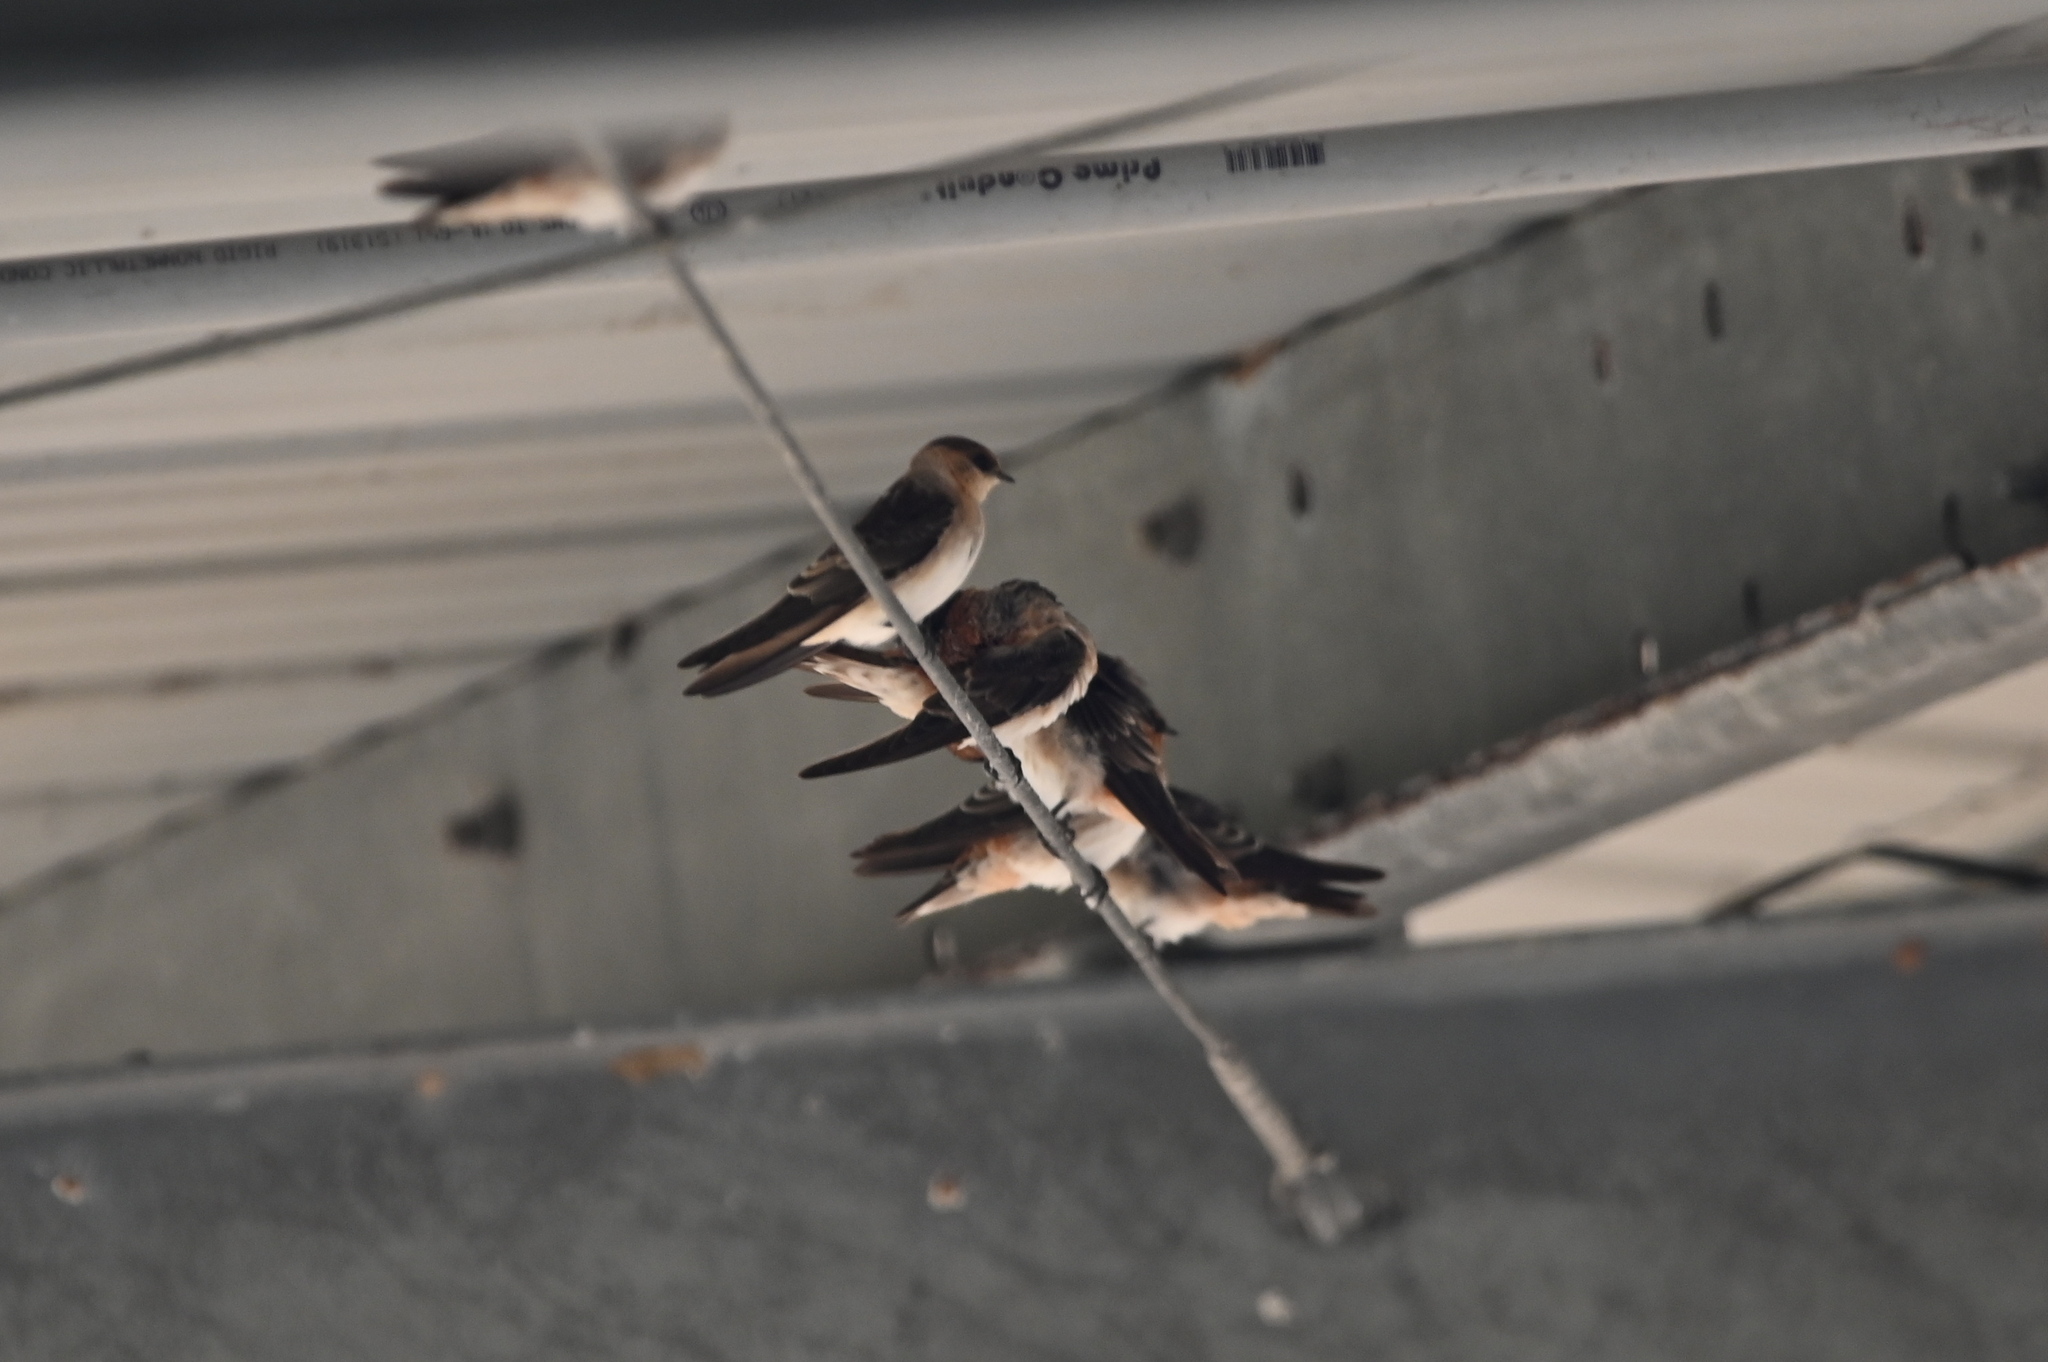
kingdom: Animalia
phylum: Chordata
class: Aves
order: Passeriformes
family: Hirundinidae
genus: Petrochelidon
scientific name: Petrochelidon fulva
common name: Cave swallow
